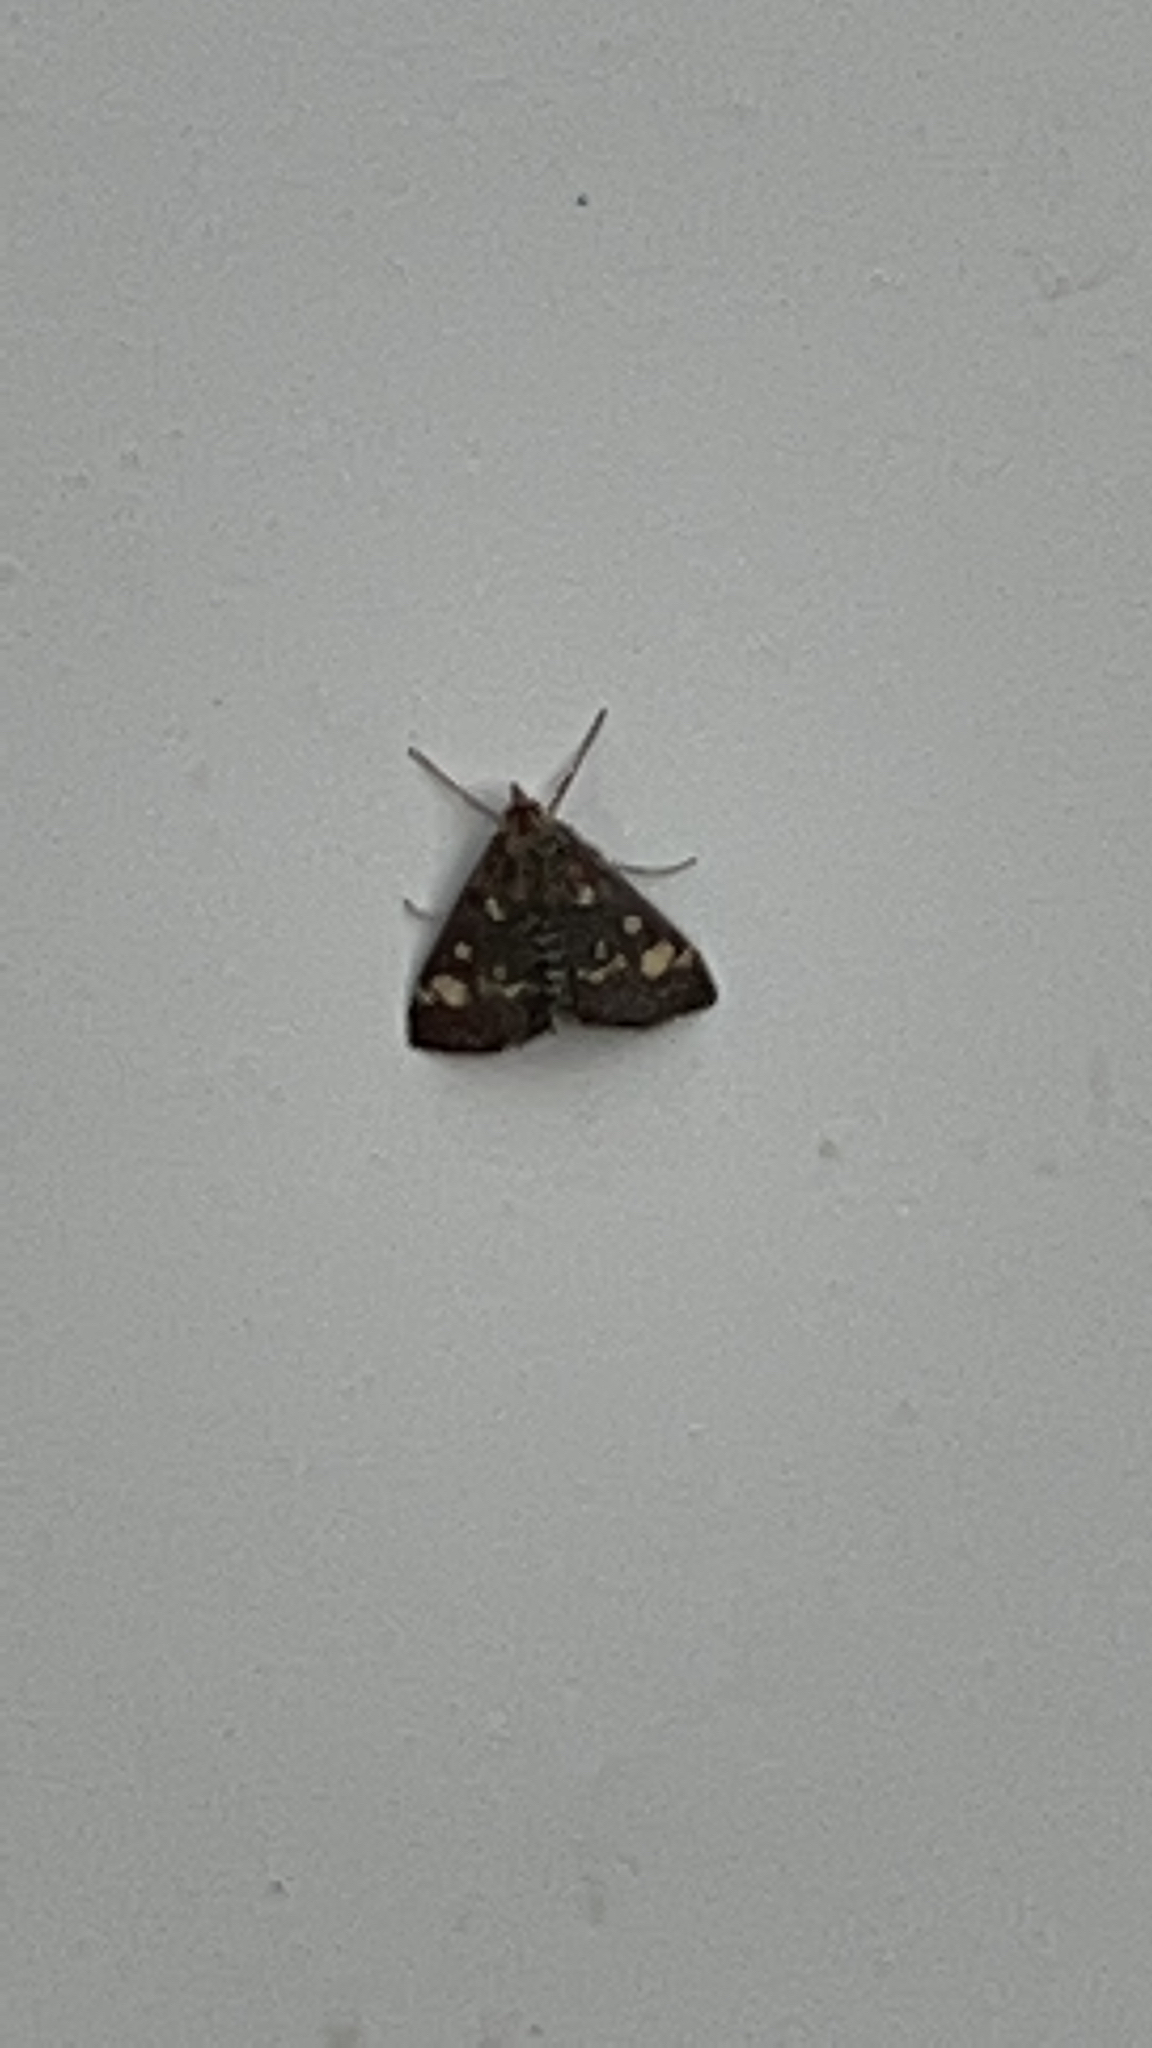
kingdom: Animalia
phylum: Arthropoda
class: Insecta
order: Lepidoptera
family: Crambidae
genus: Pyrausta
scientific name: Pyrausta aurata
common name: Small purple & gold
